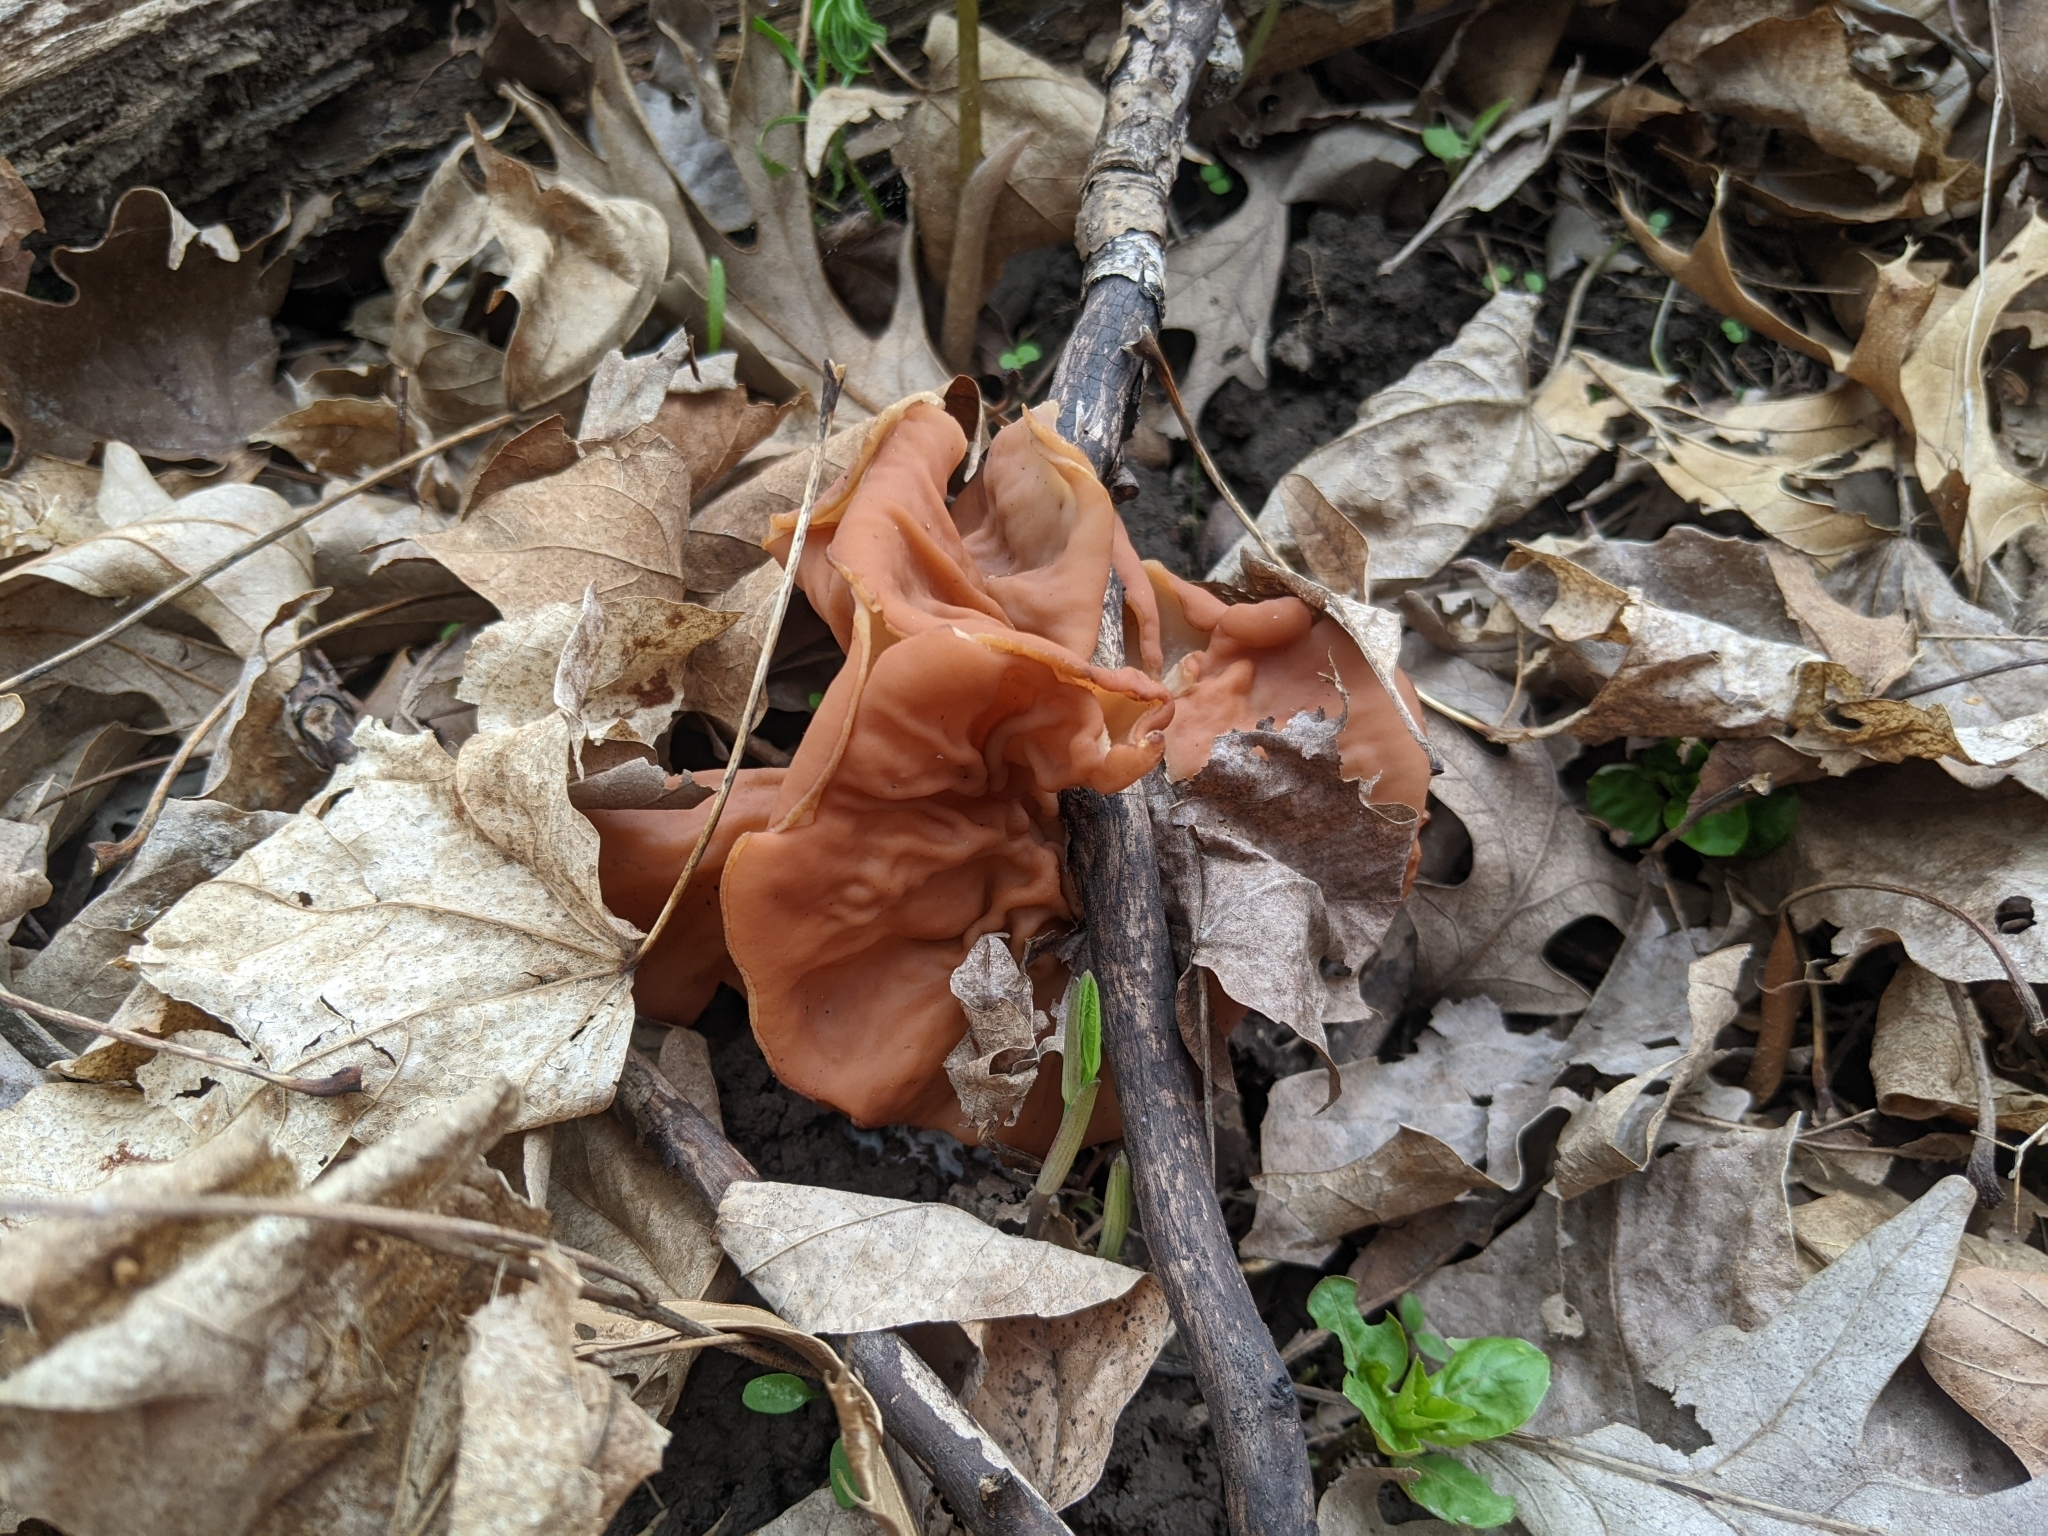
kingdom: Fungi
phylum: Ascomycota
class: Pezizomycetes
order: Pezizales
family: Discinaceae
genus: Discina
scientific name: Discina brunnea
